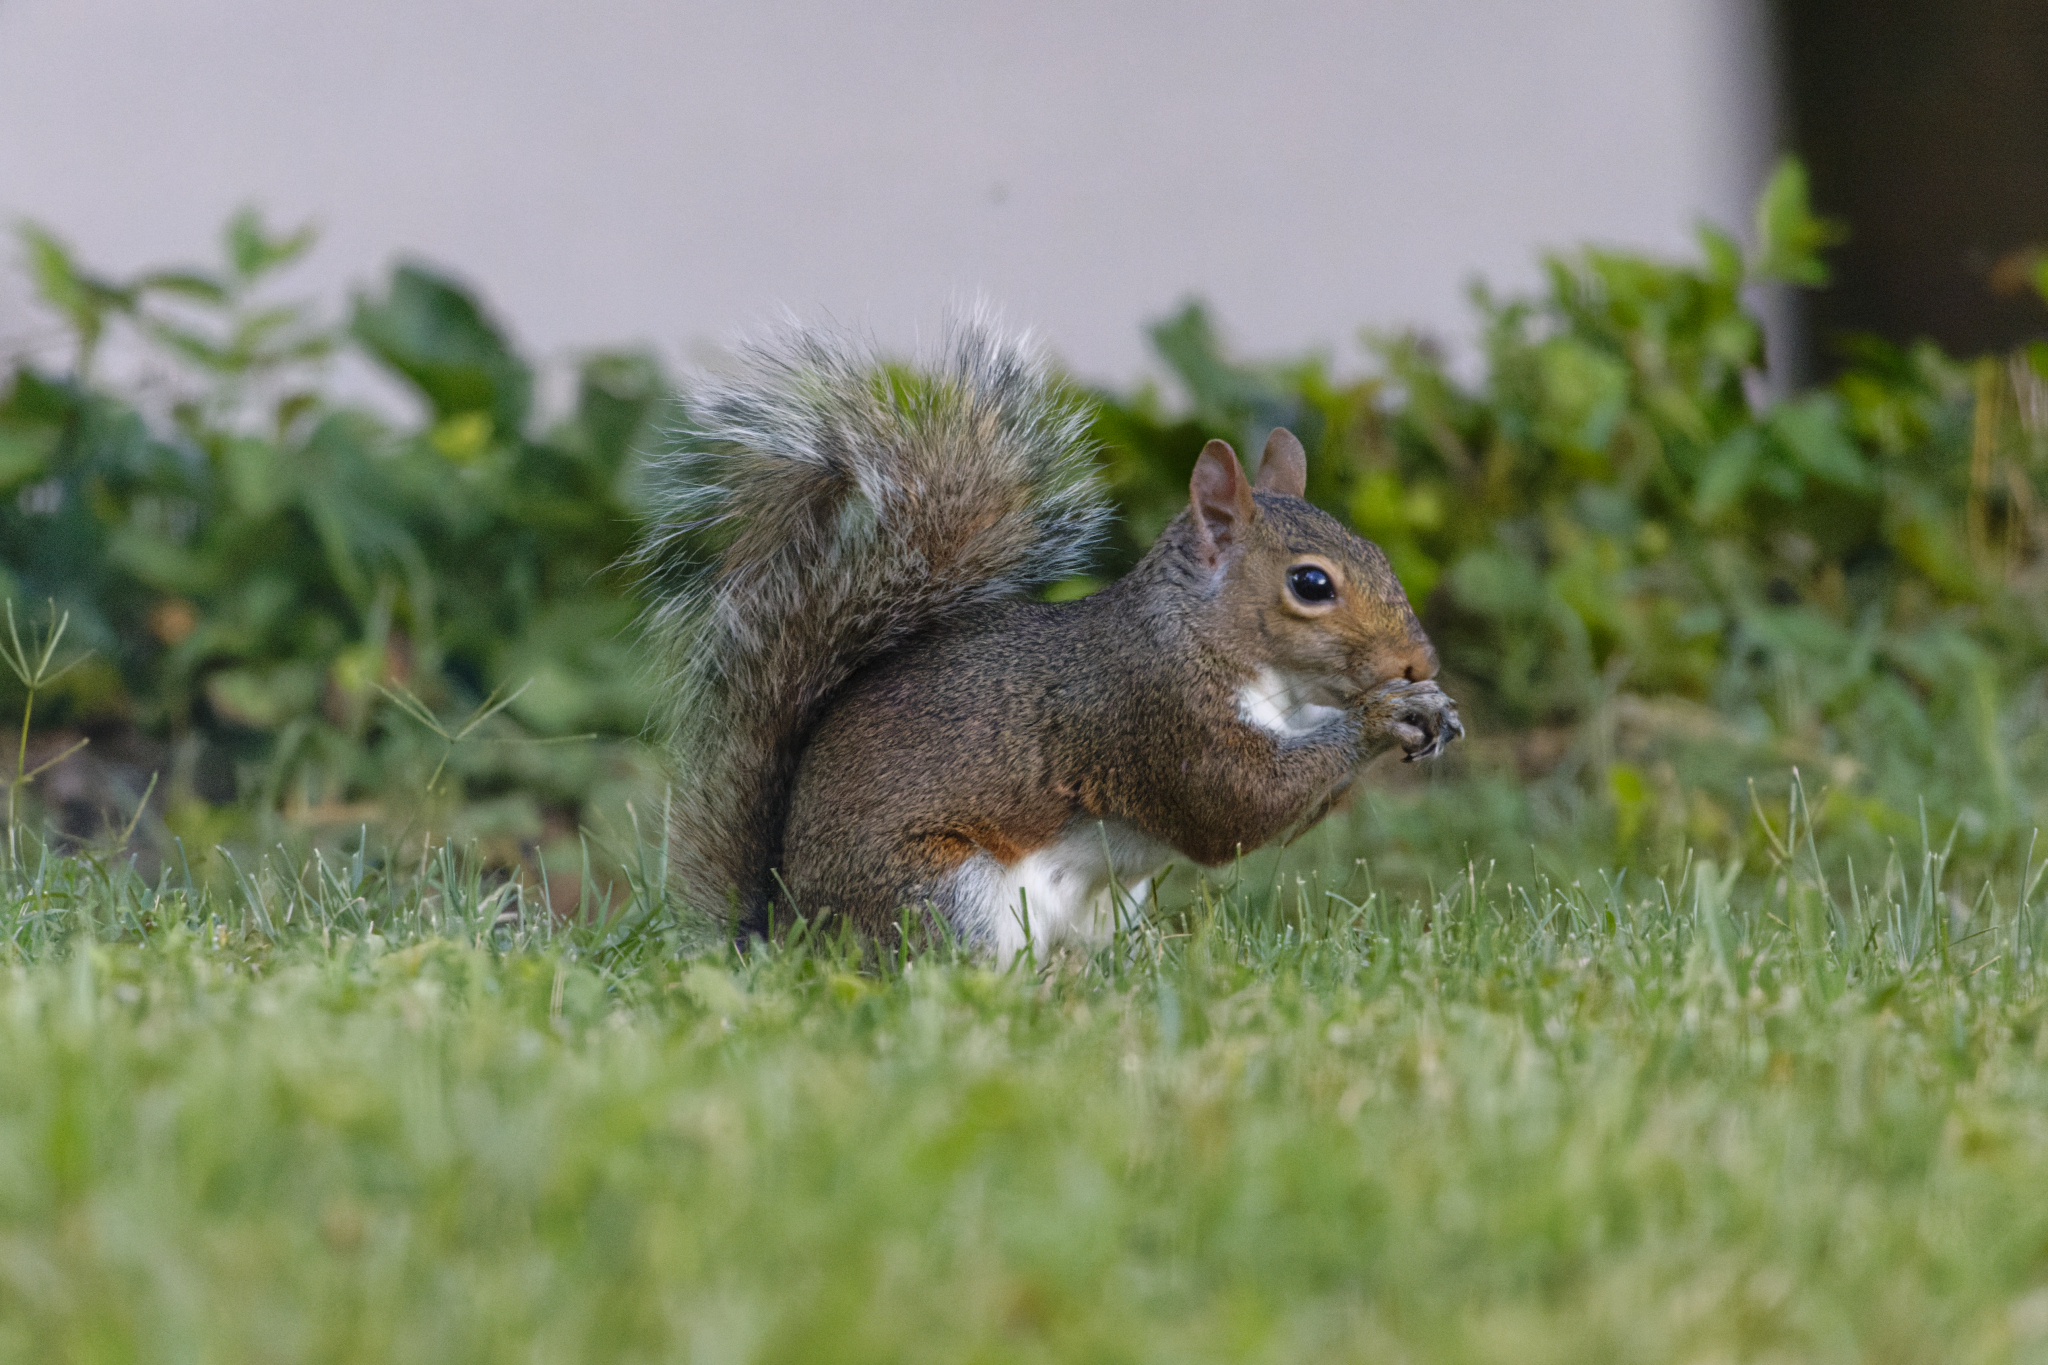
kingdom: Animalia
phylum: Chordata
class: Mammalia
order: Rodentia
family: Sciuridae
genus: Sciurus
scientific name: Sciurus carolinensis
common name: Eastern gray squirrel
